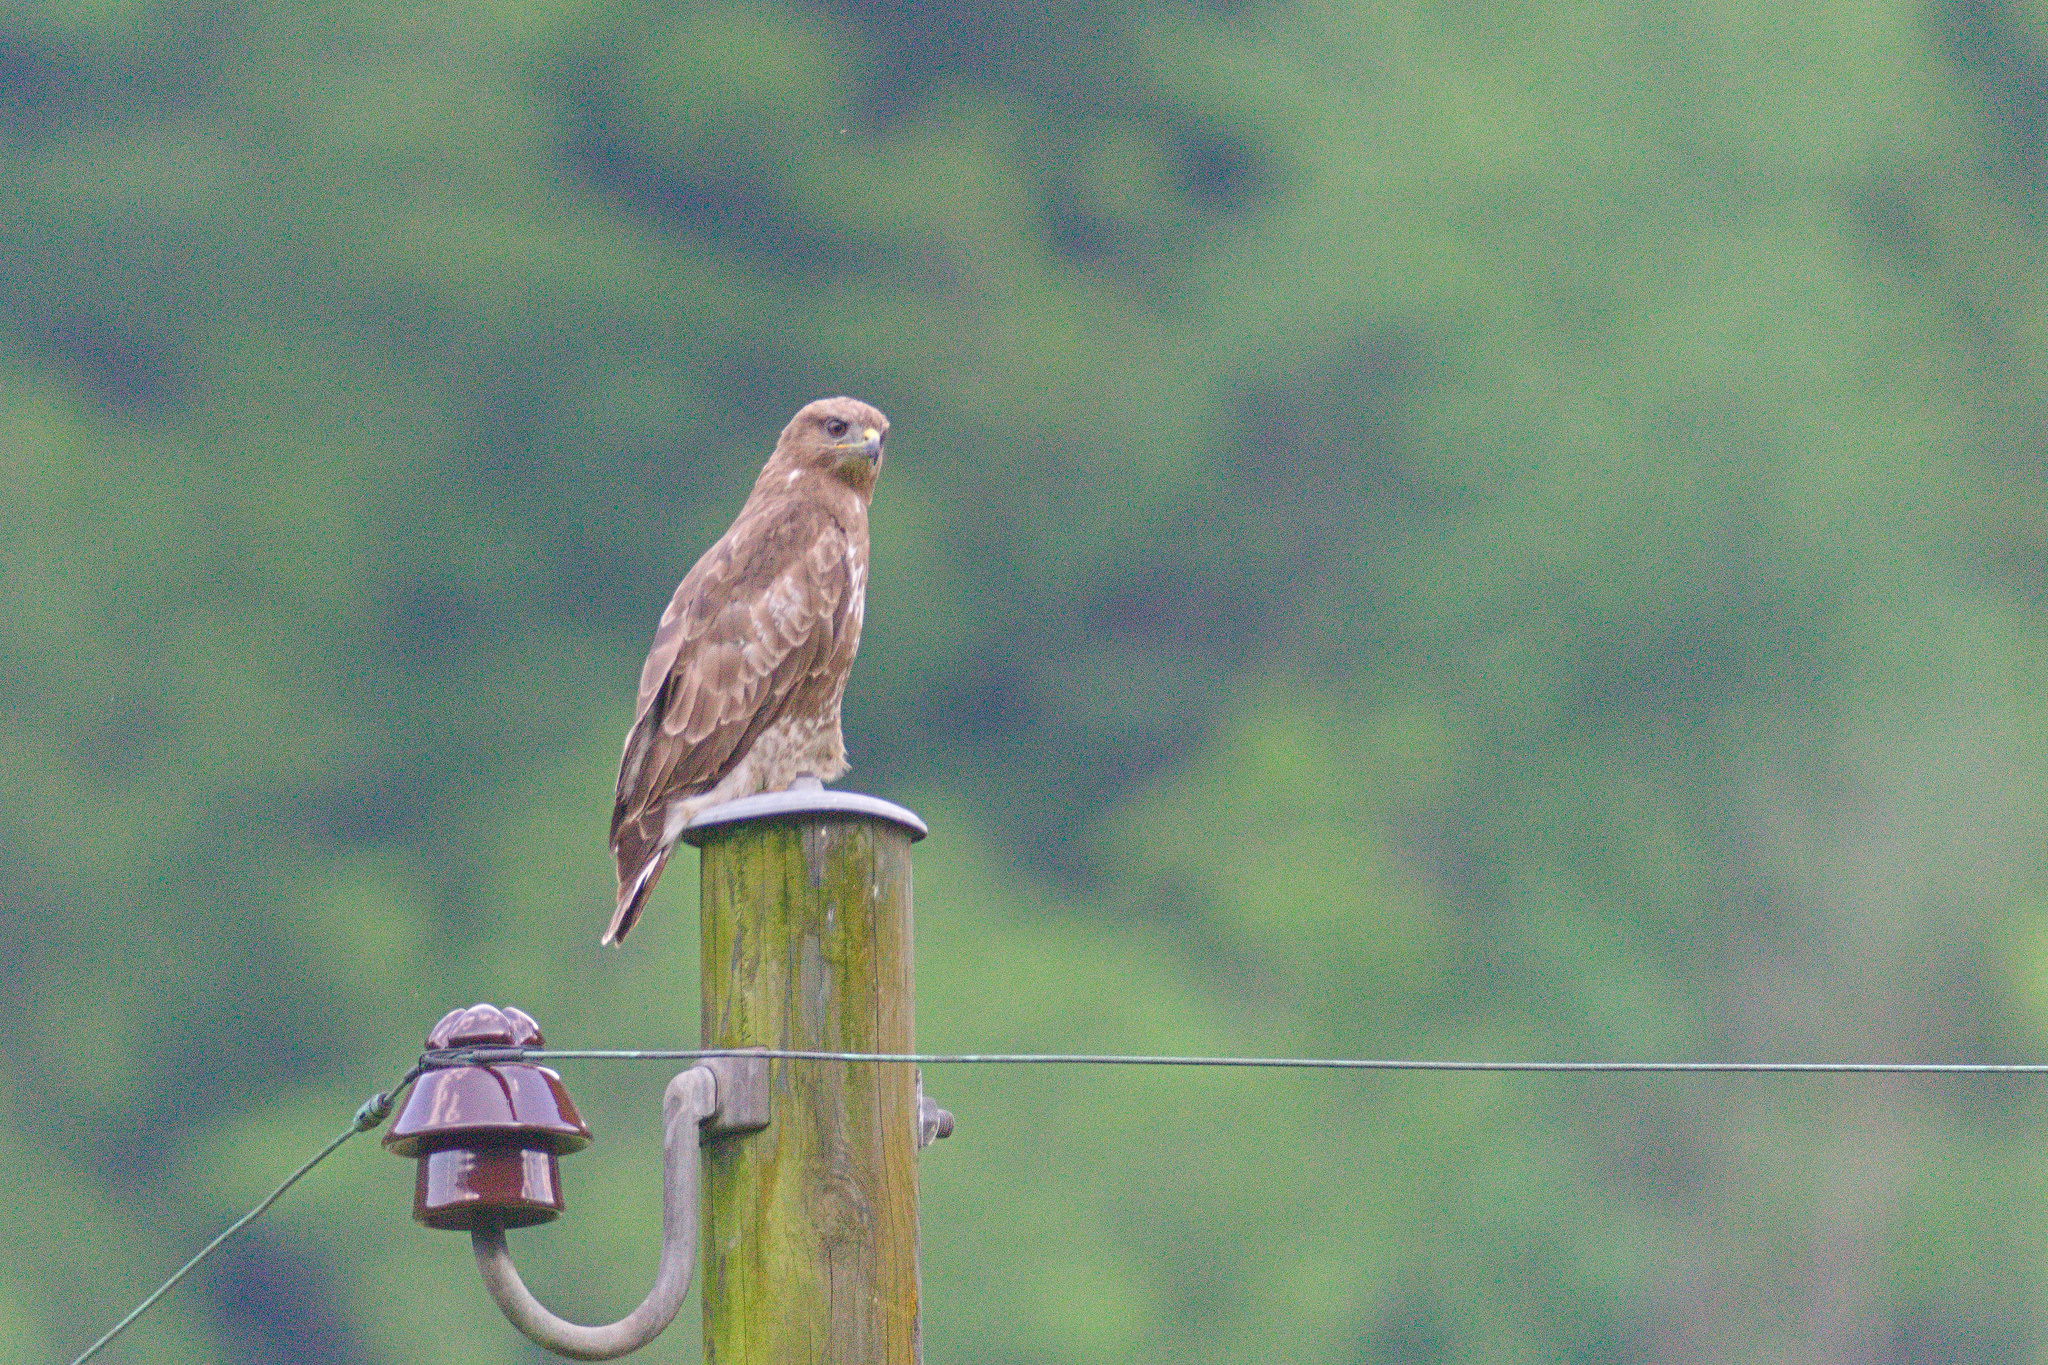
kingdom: Animalia
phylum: Chordata
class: Aves
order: Accipitriformes
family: Accipitridae
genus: Buteo
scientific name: Buteo buteo
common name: Common buzzard
